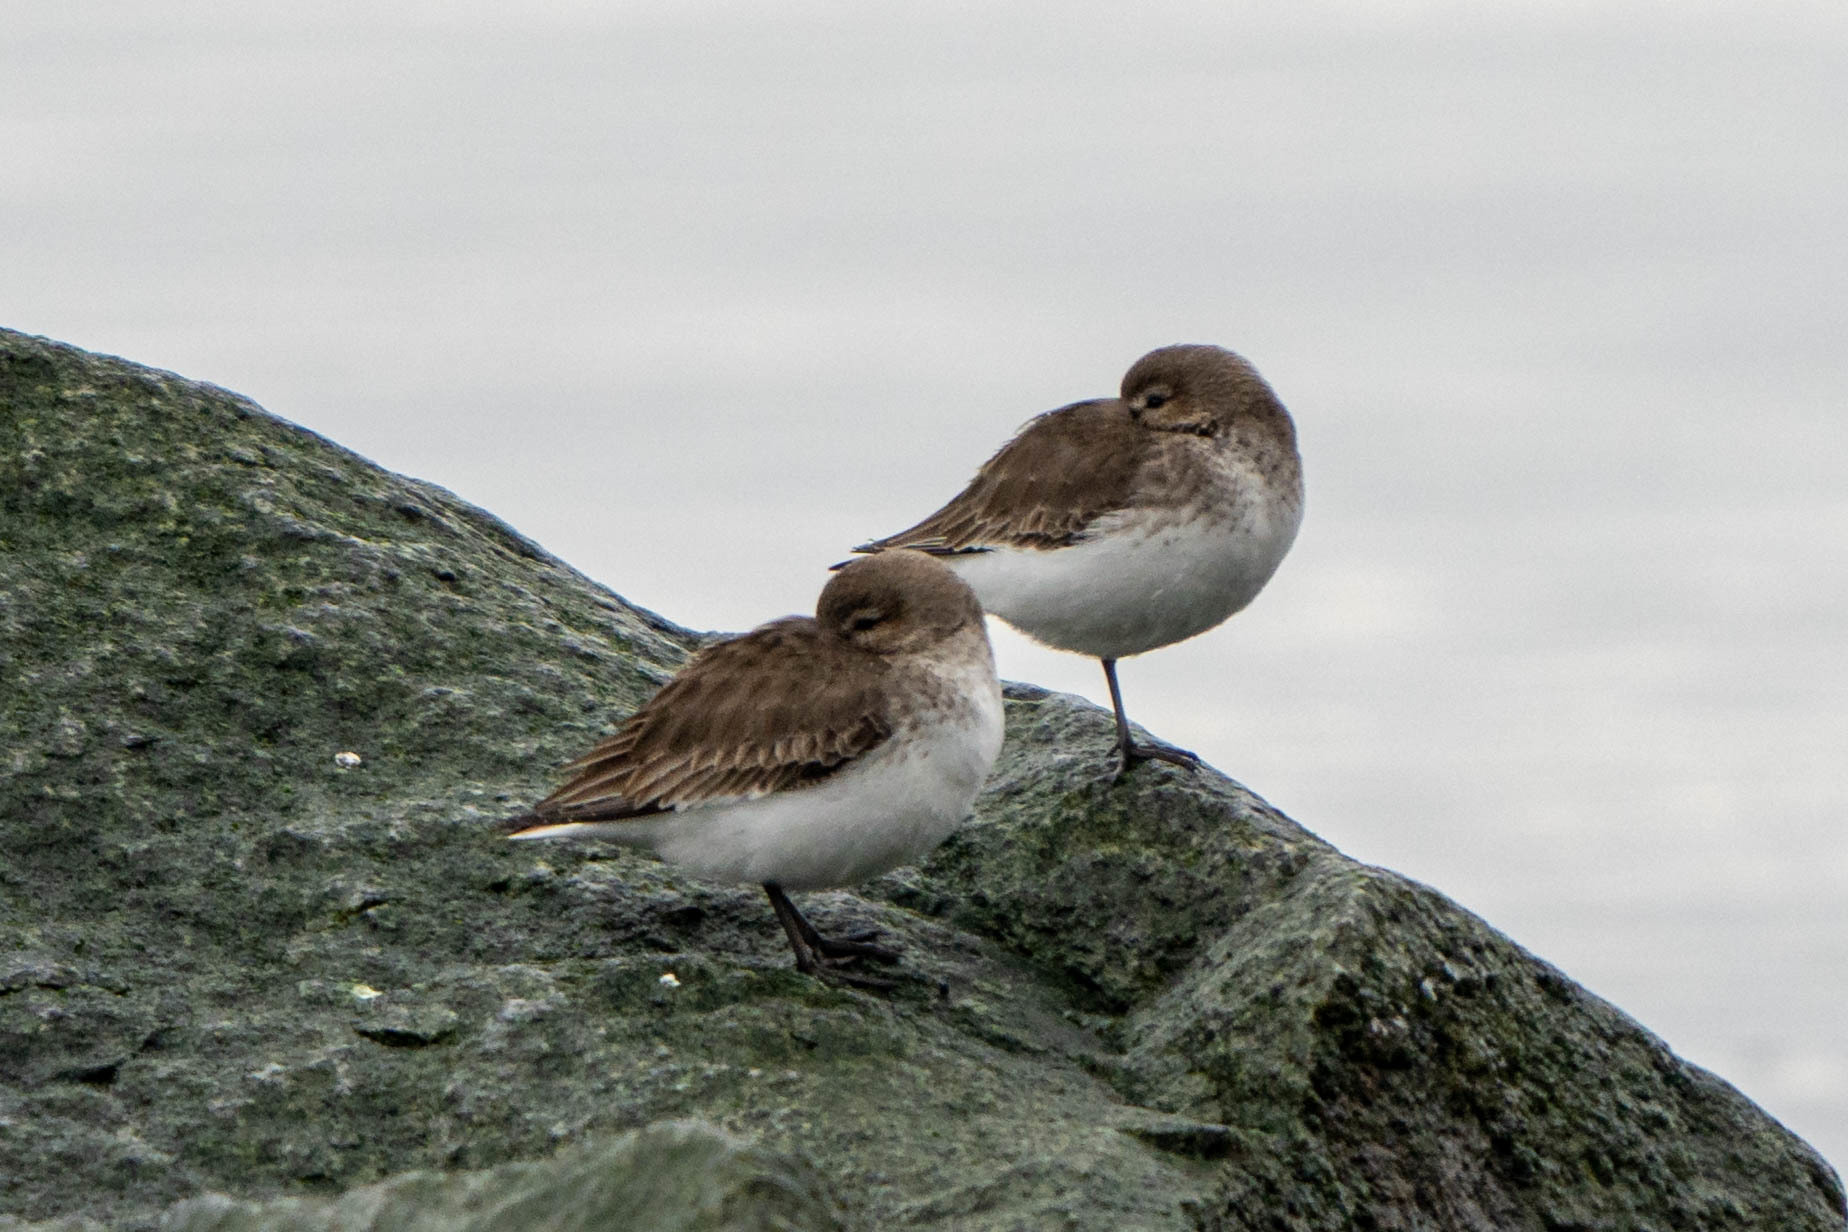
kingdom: Animalia
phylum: Chordata
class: Aves
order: Charadriiformes
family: Scolopacidae
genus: Calidris
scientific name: Calidris alpina
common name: Dunlin
